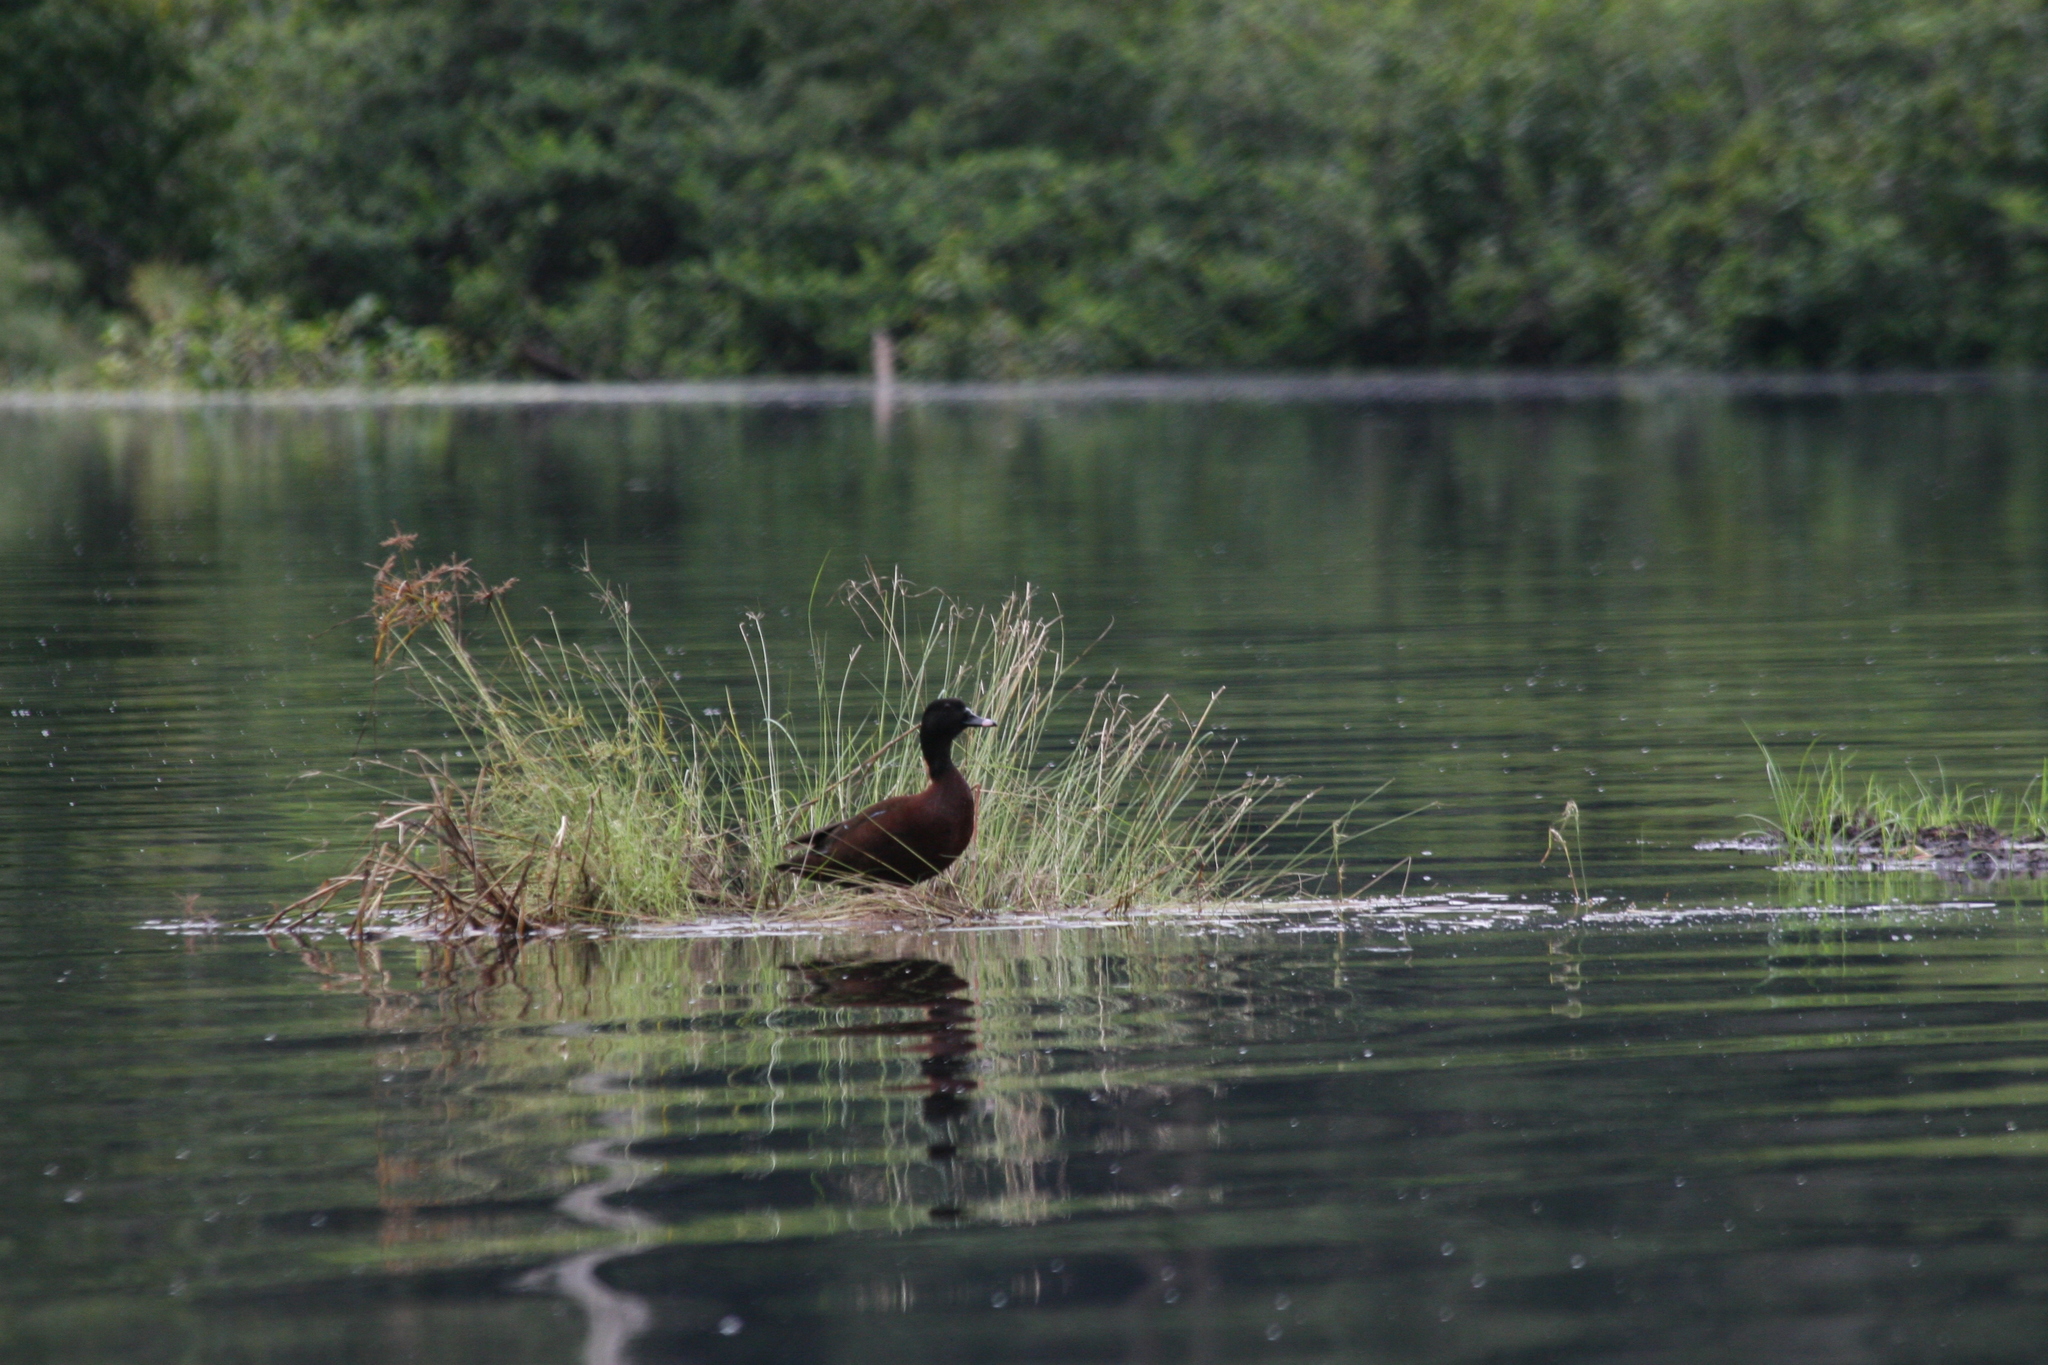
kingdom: Animalia
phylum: Chordata
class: Aves
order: Anseriformes
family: Anatidae
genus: Pteronetta
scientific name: Pteronetta hartlaubii
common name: Hartlaub's duck
